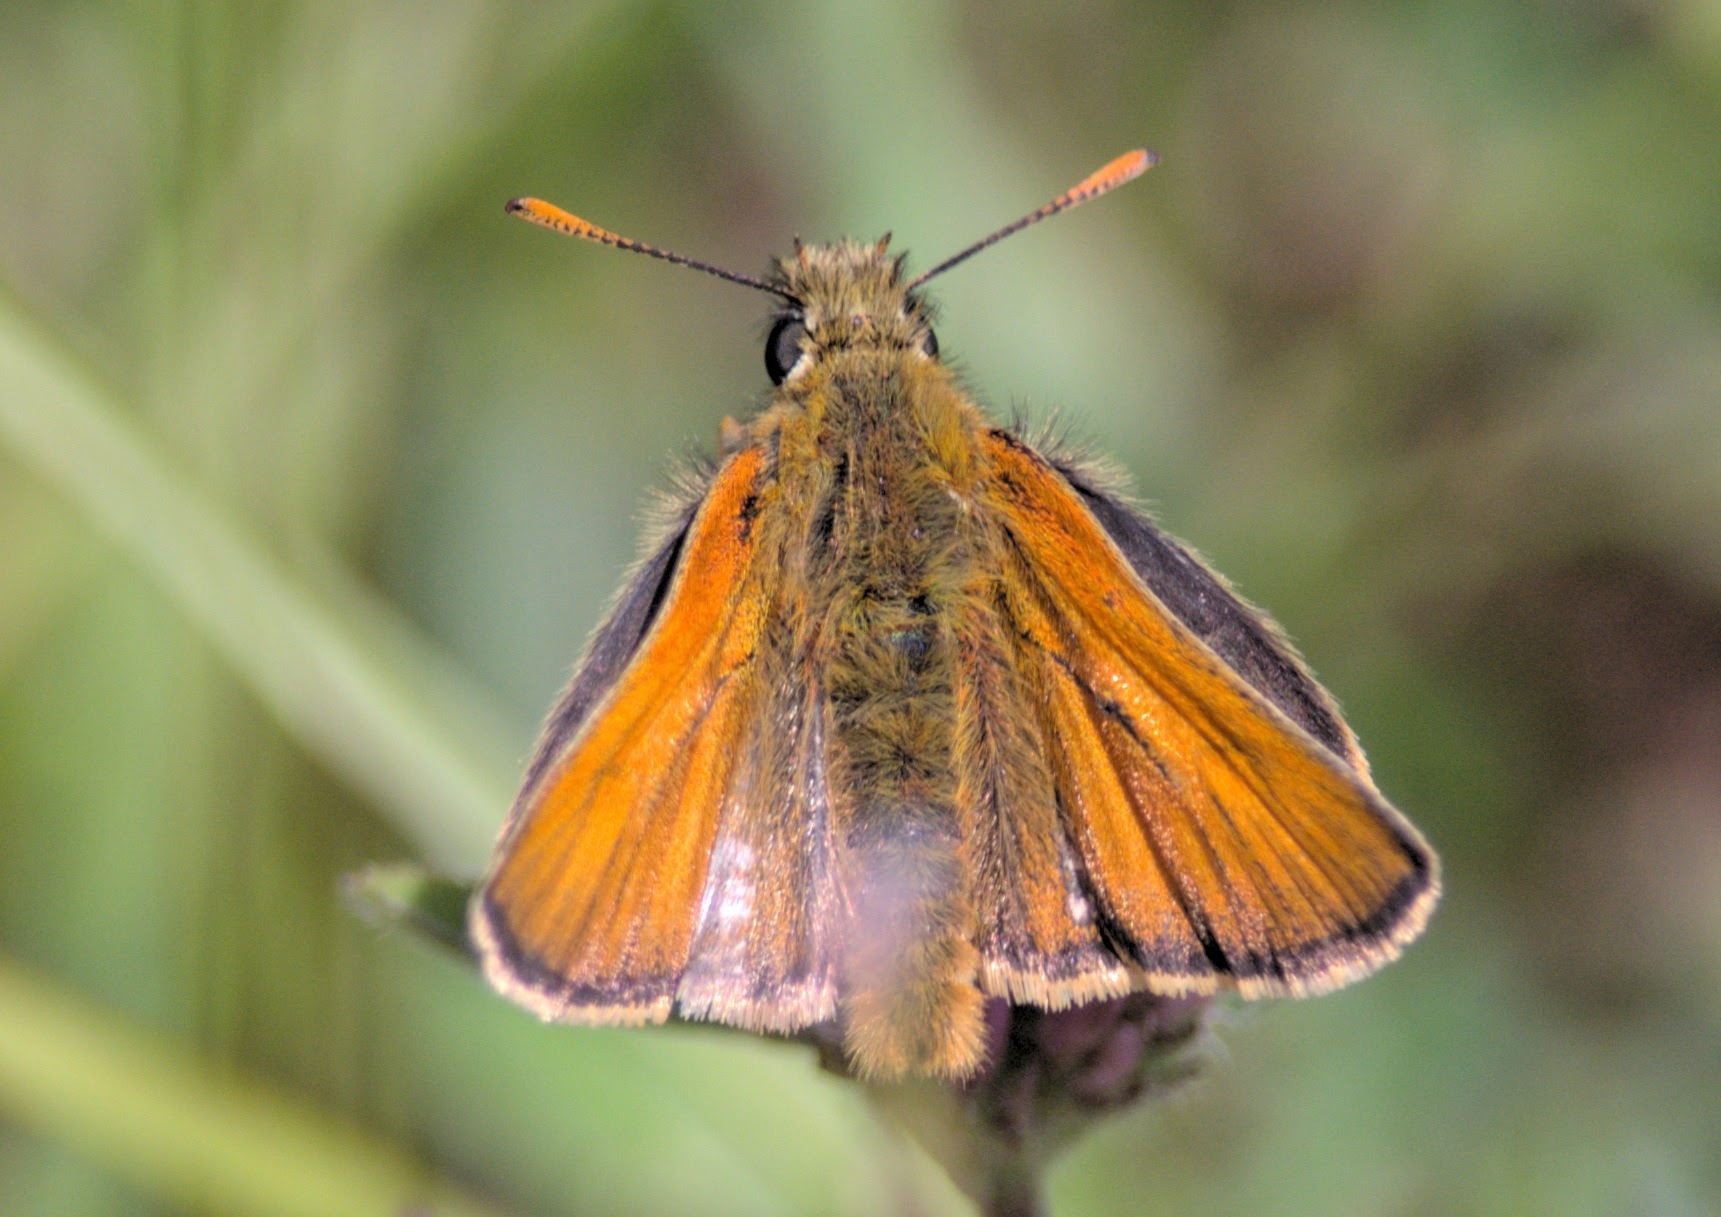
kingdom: Animalia
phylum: Arthropoda
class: Insecta
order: Lepidoptera
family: Hesperiidae
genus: Thymelicus
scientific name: Thymelicus sylvestris
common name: Small skipper
